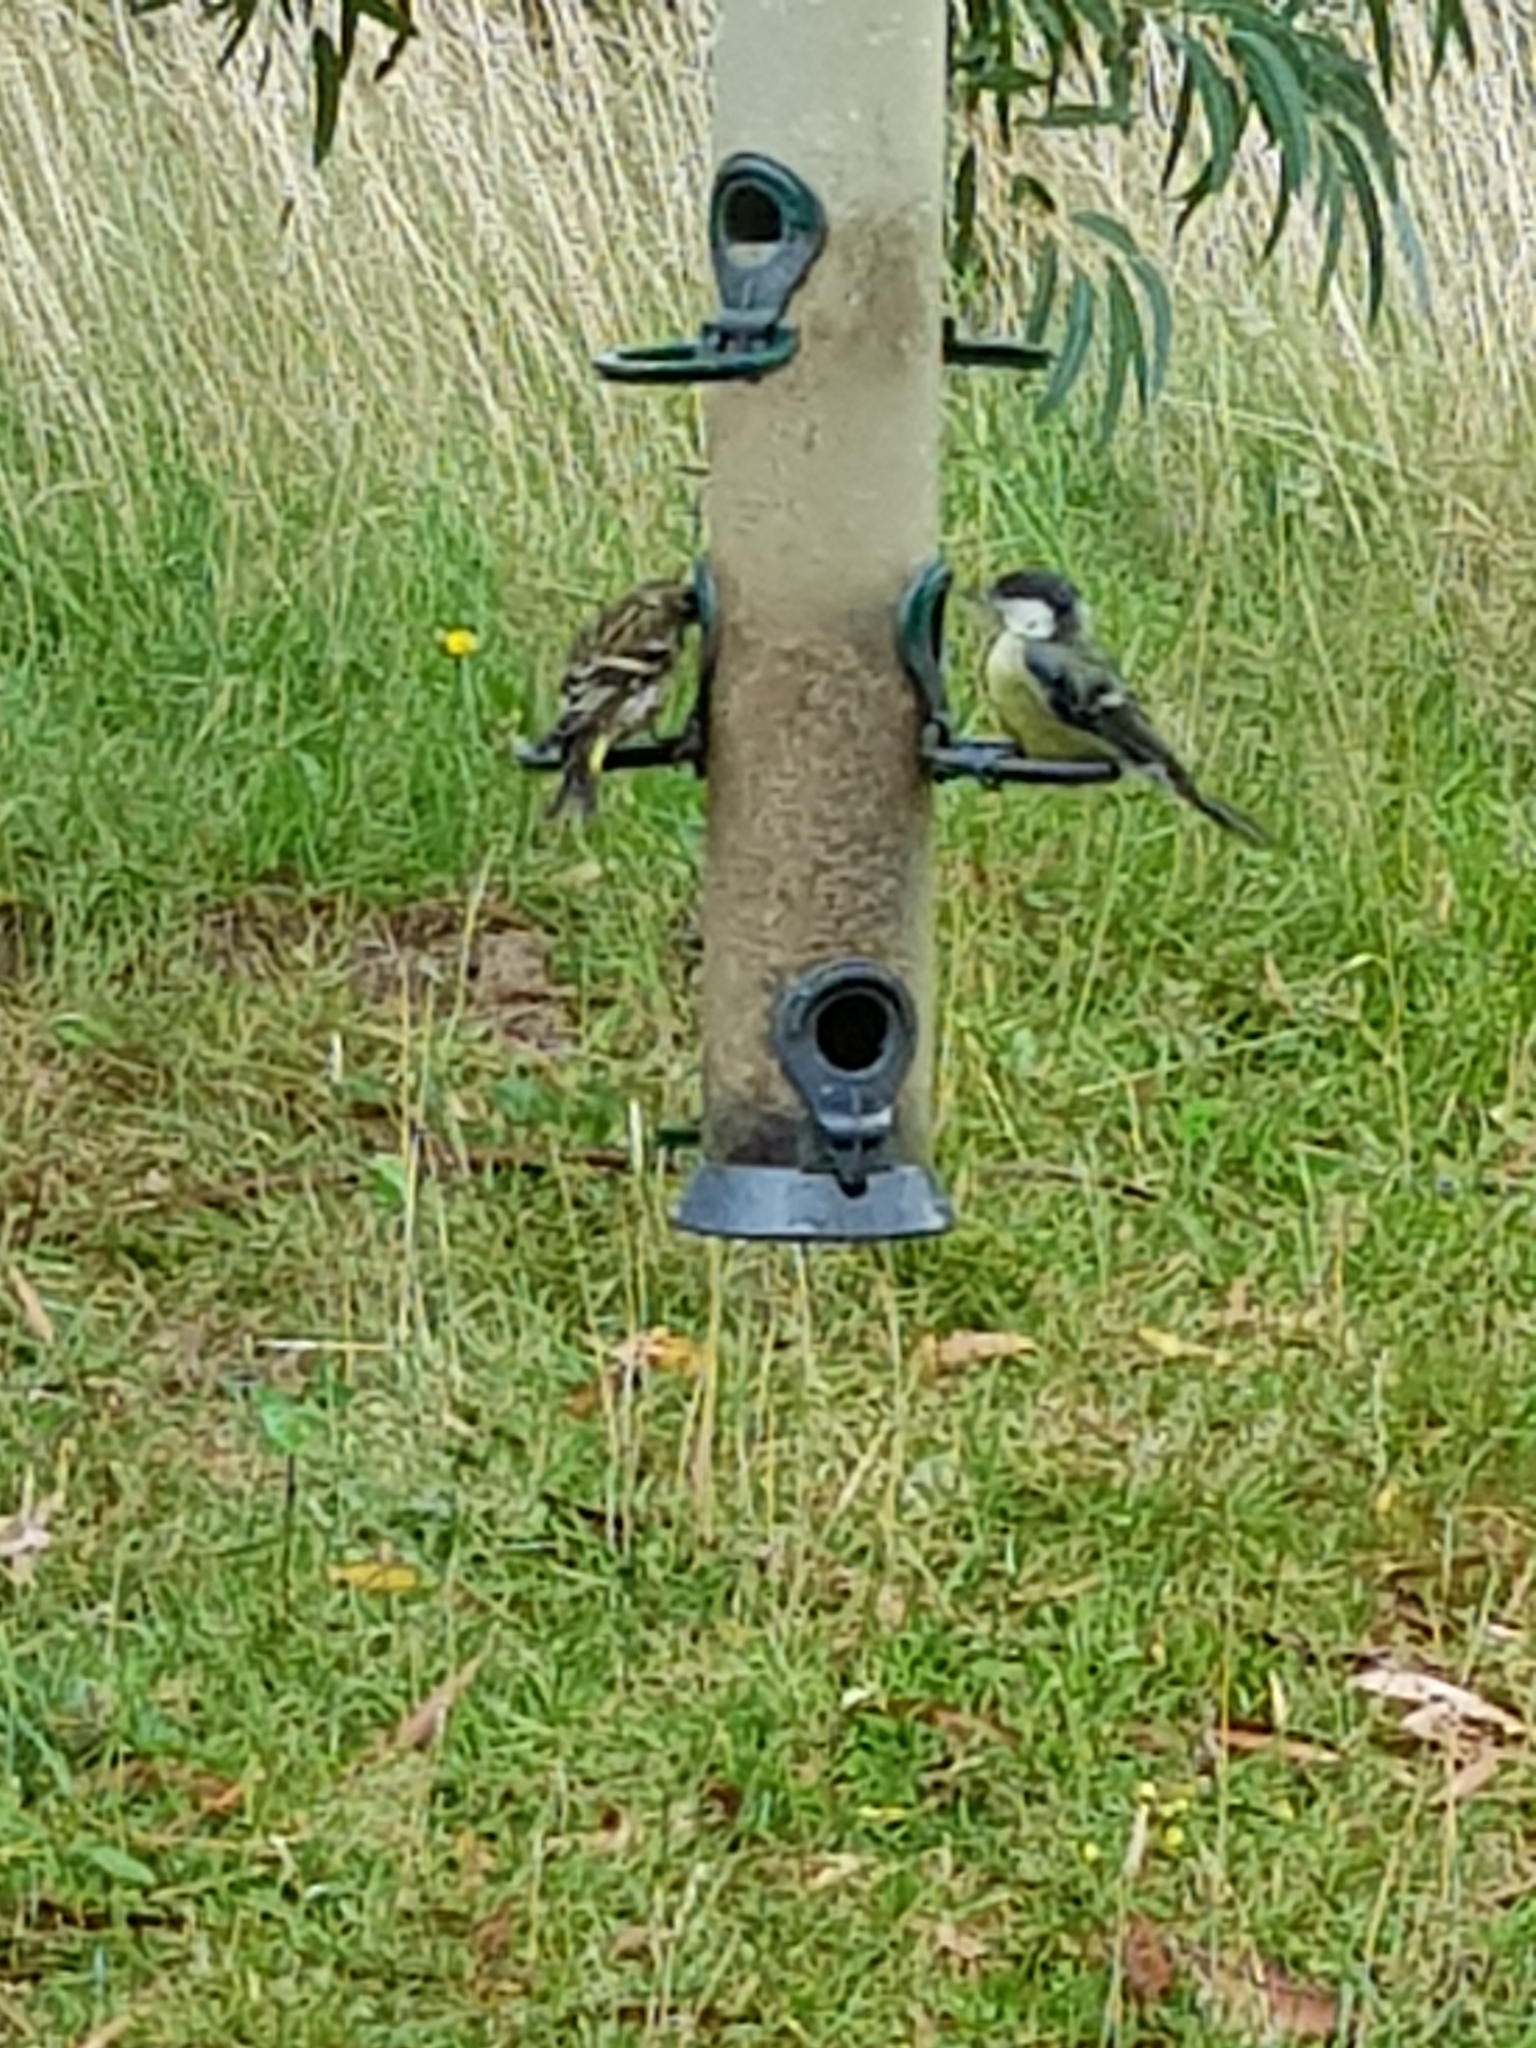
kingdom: Animalia
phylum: Chordata
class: Aves
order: Passeriformes
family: Paridae
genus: Parus
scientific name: Parus major
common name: Great tit
